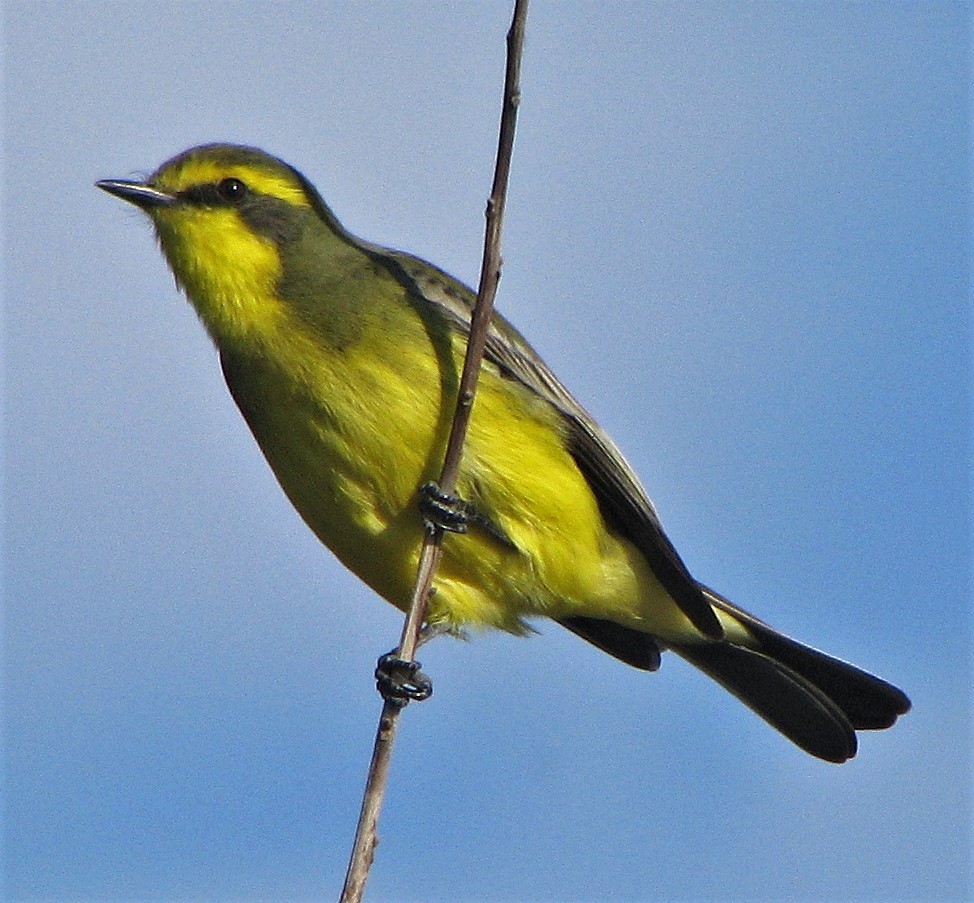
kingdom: Animalia
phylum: Chordata
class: Aves
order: Passeriformes
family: Tyrannidae
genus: Satrapa
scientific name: Satrapa icterophrys
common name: Yellow-browed tyrant
